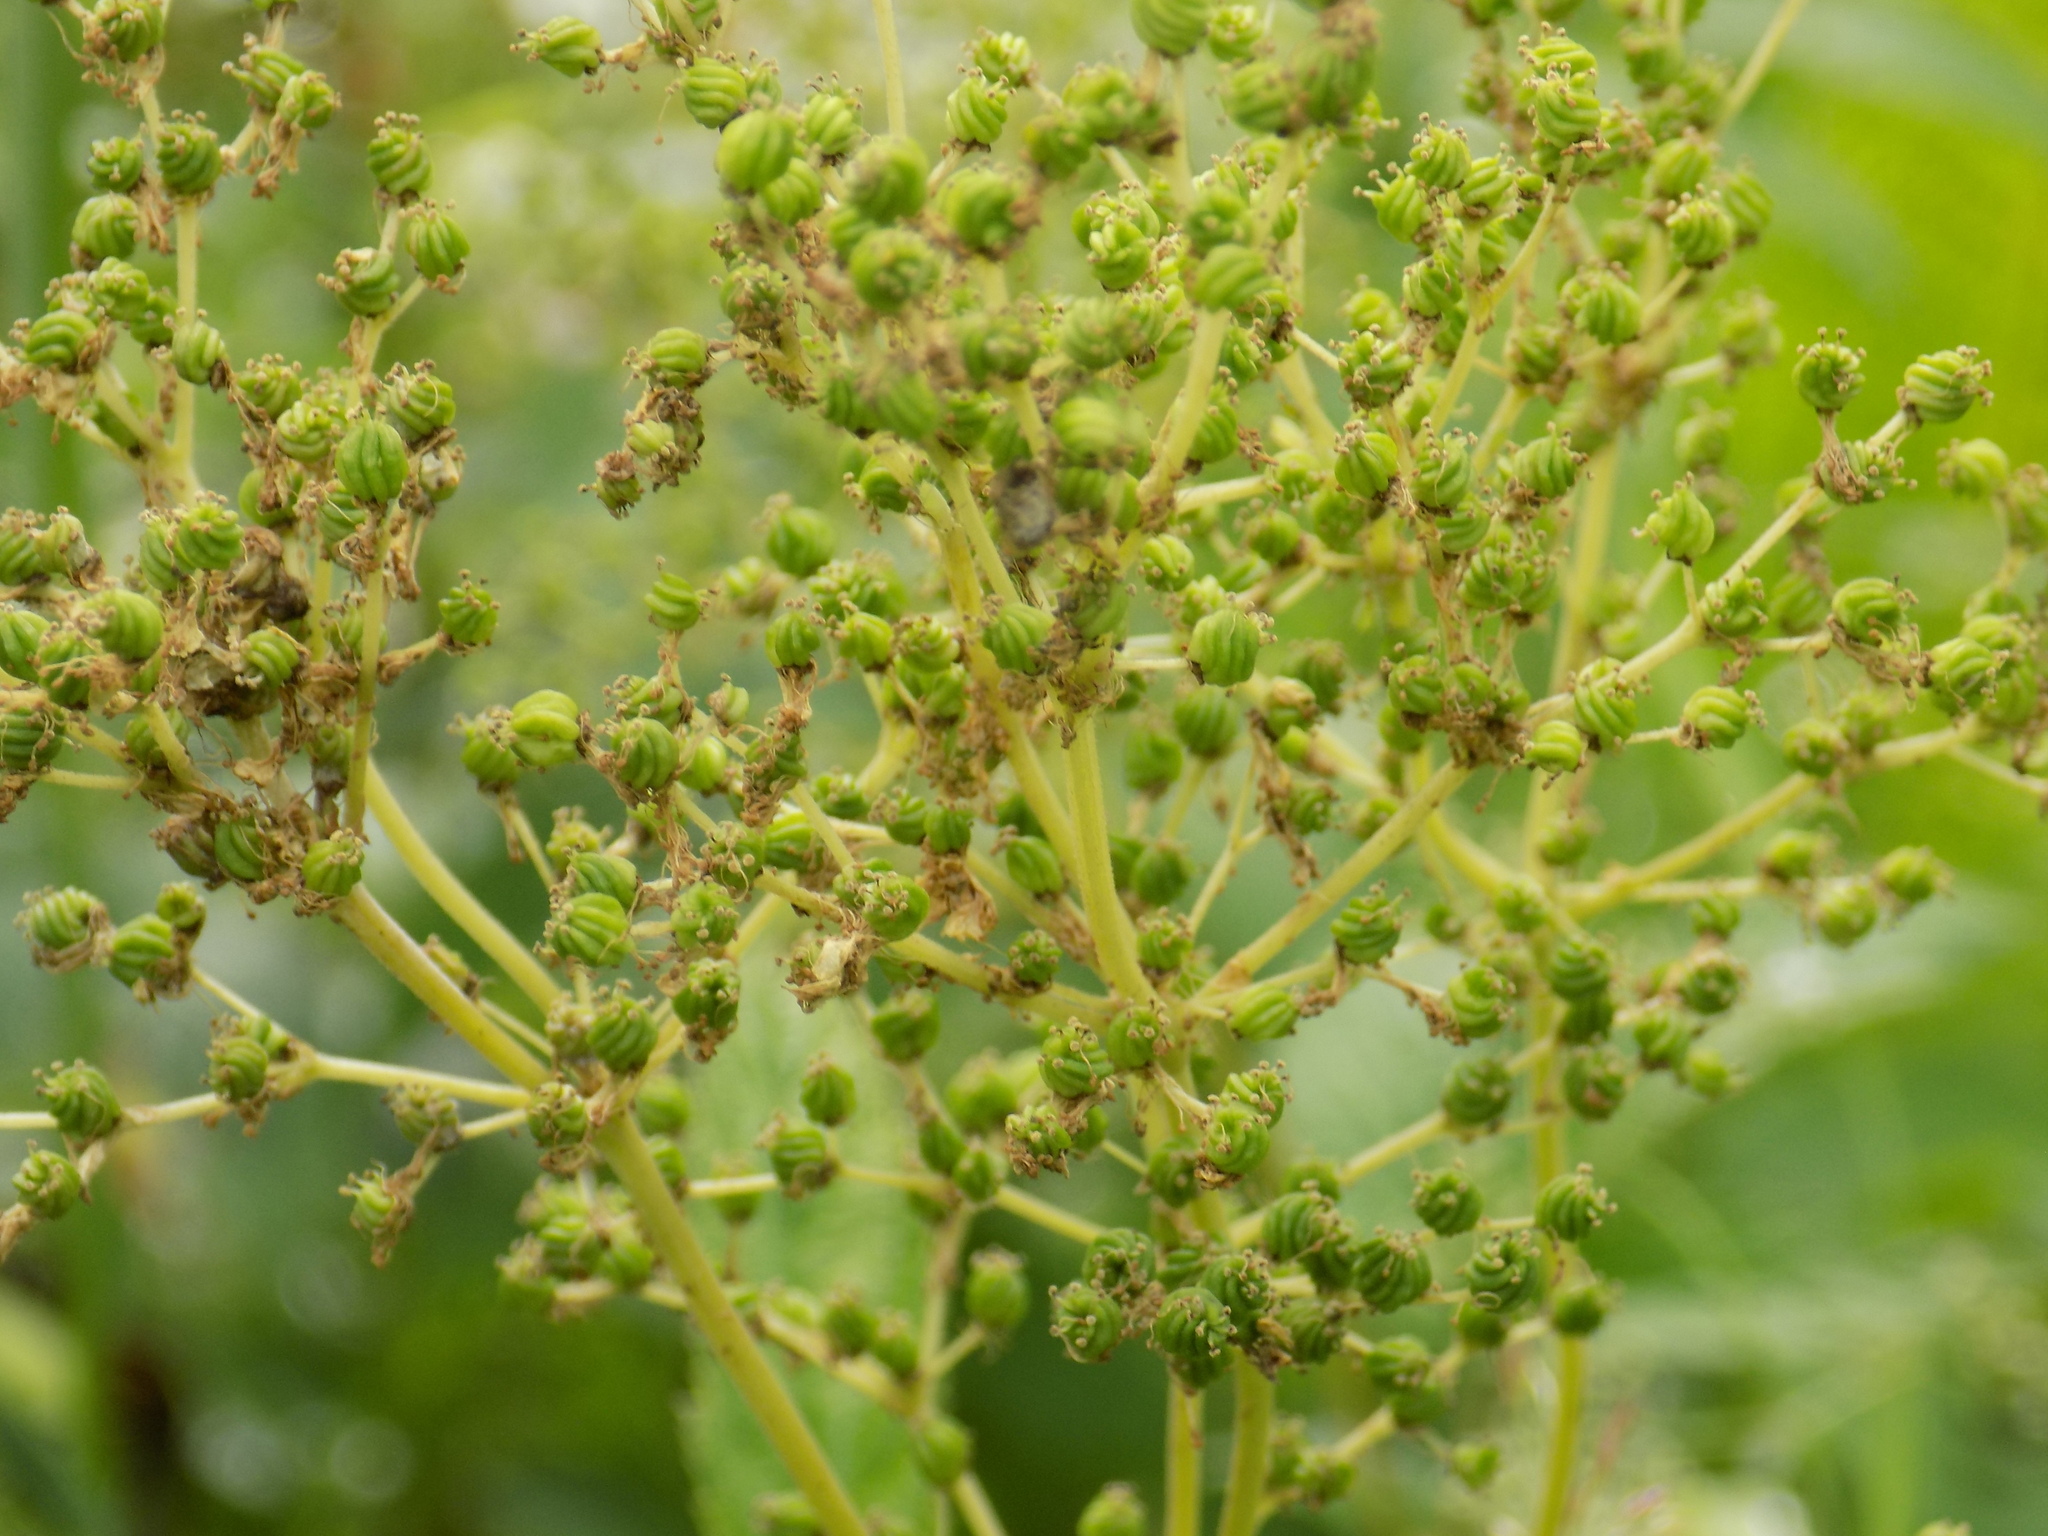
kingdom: Plantae
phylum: Tracheophyta
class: Magnoliopsida
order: Rosales
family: Rosaceae
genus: Filipendula
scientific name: Filipendula ulmaria
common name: Meadowsweet
